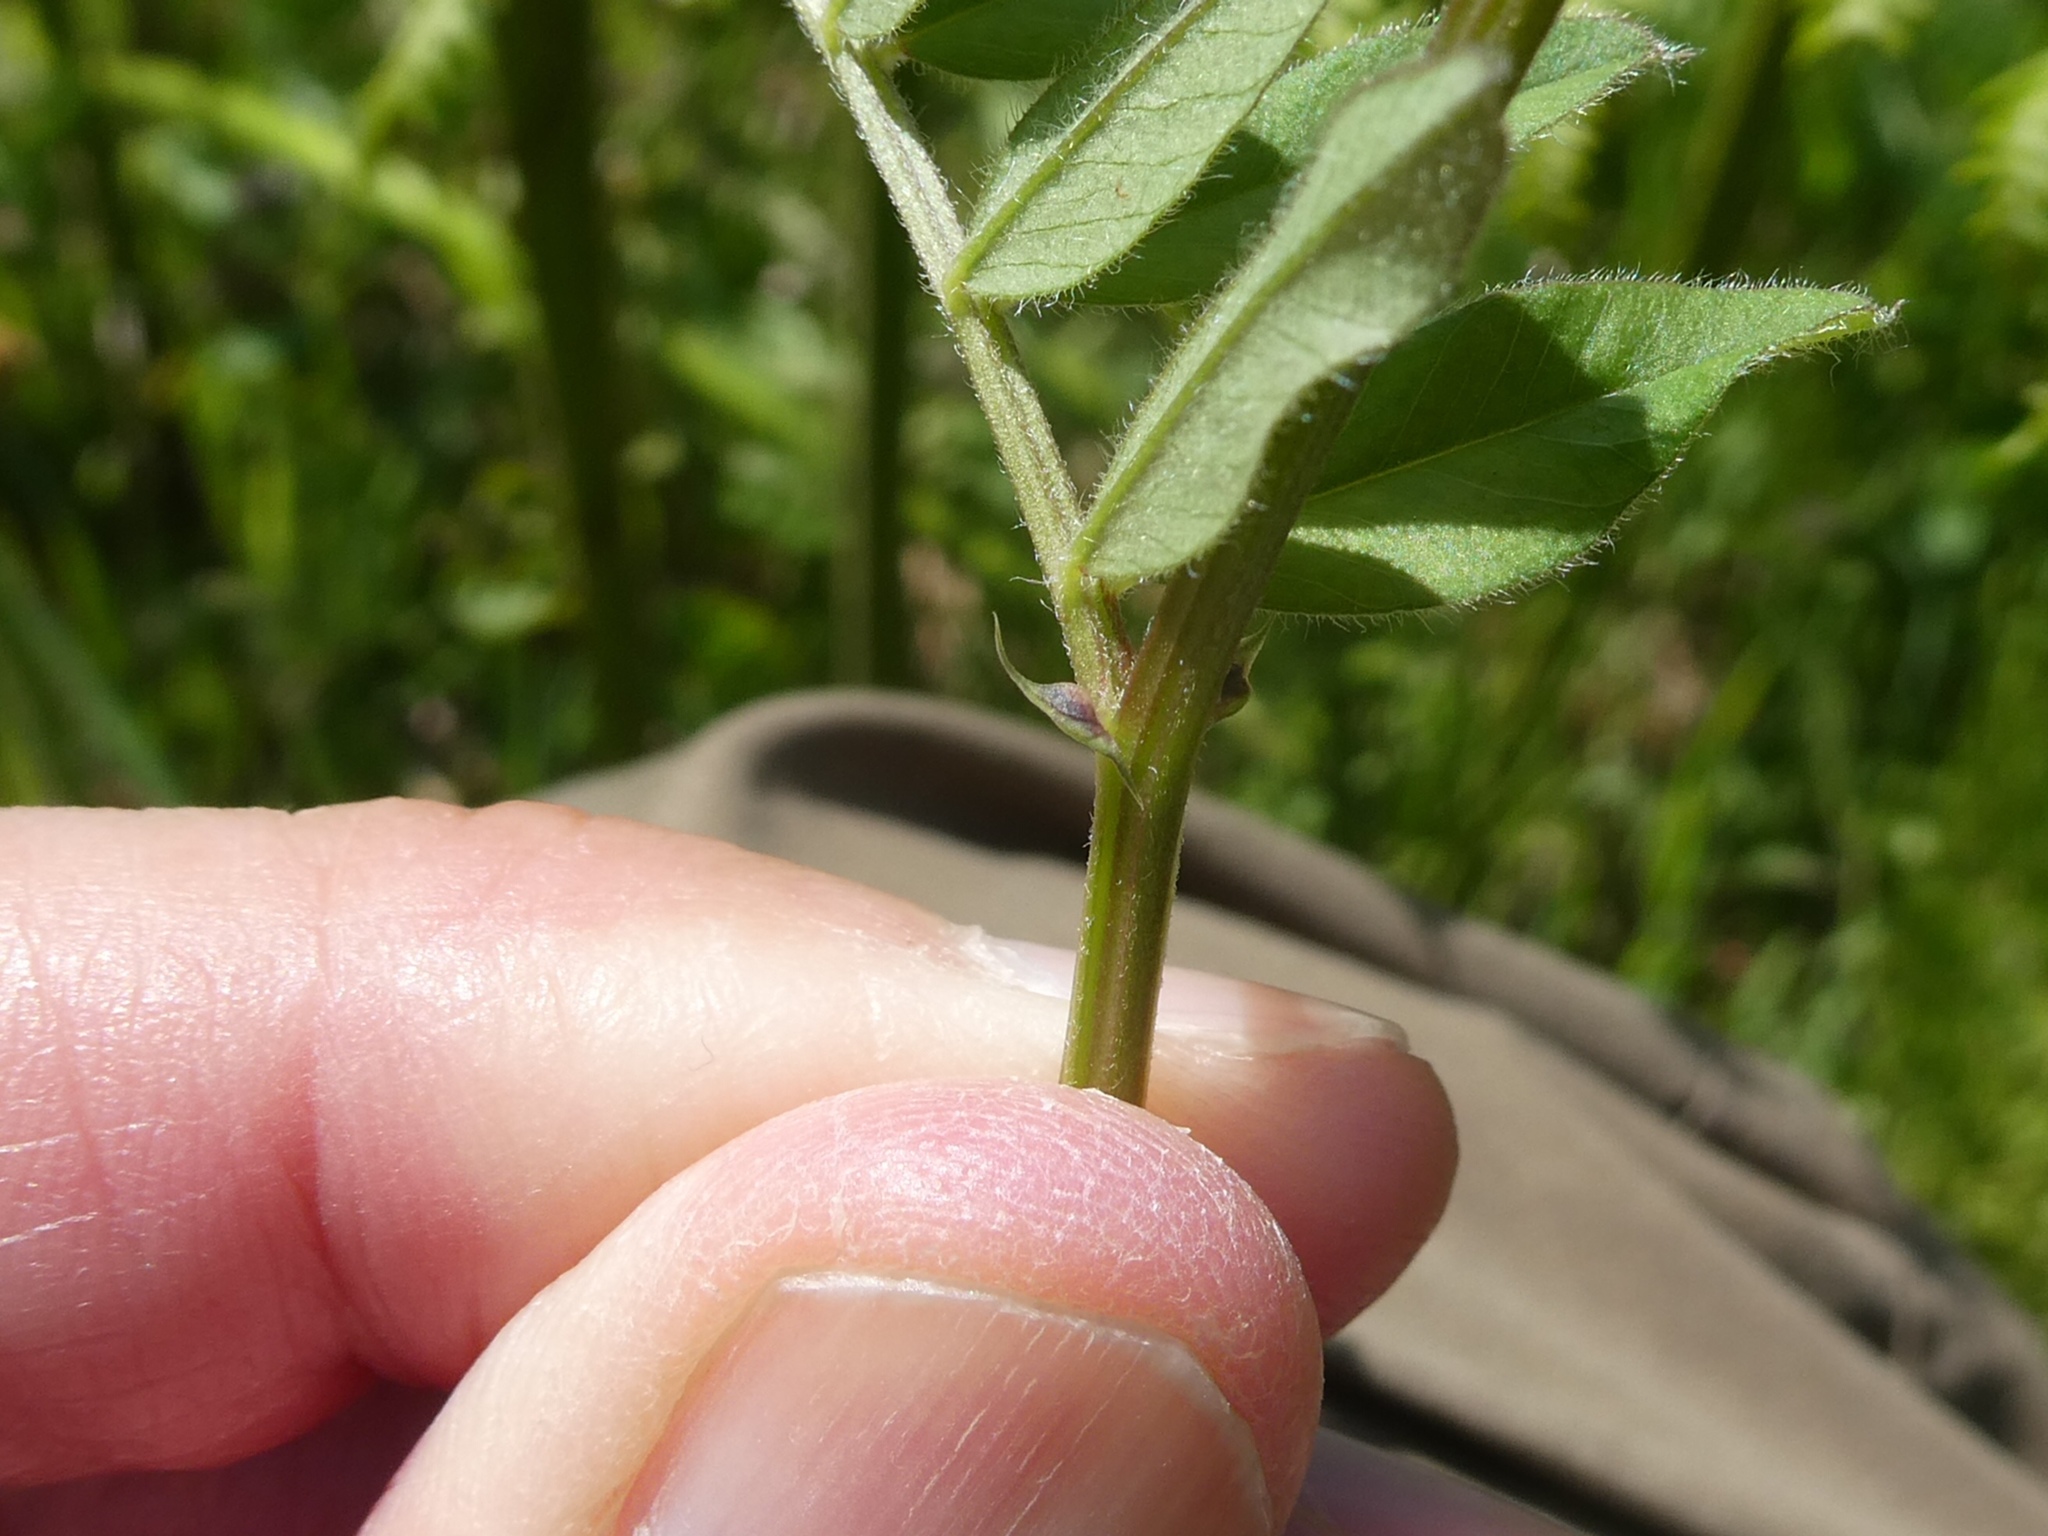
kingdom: Plantae
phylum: Tracheophyta
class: Magnoliopsida
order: Fabales
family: Fabaceae
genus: Vicia
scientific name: Vicia sepium
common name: Bush vetch
